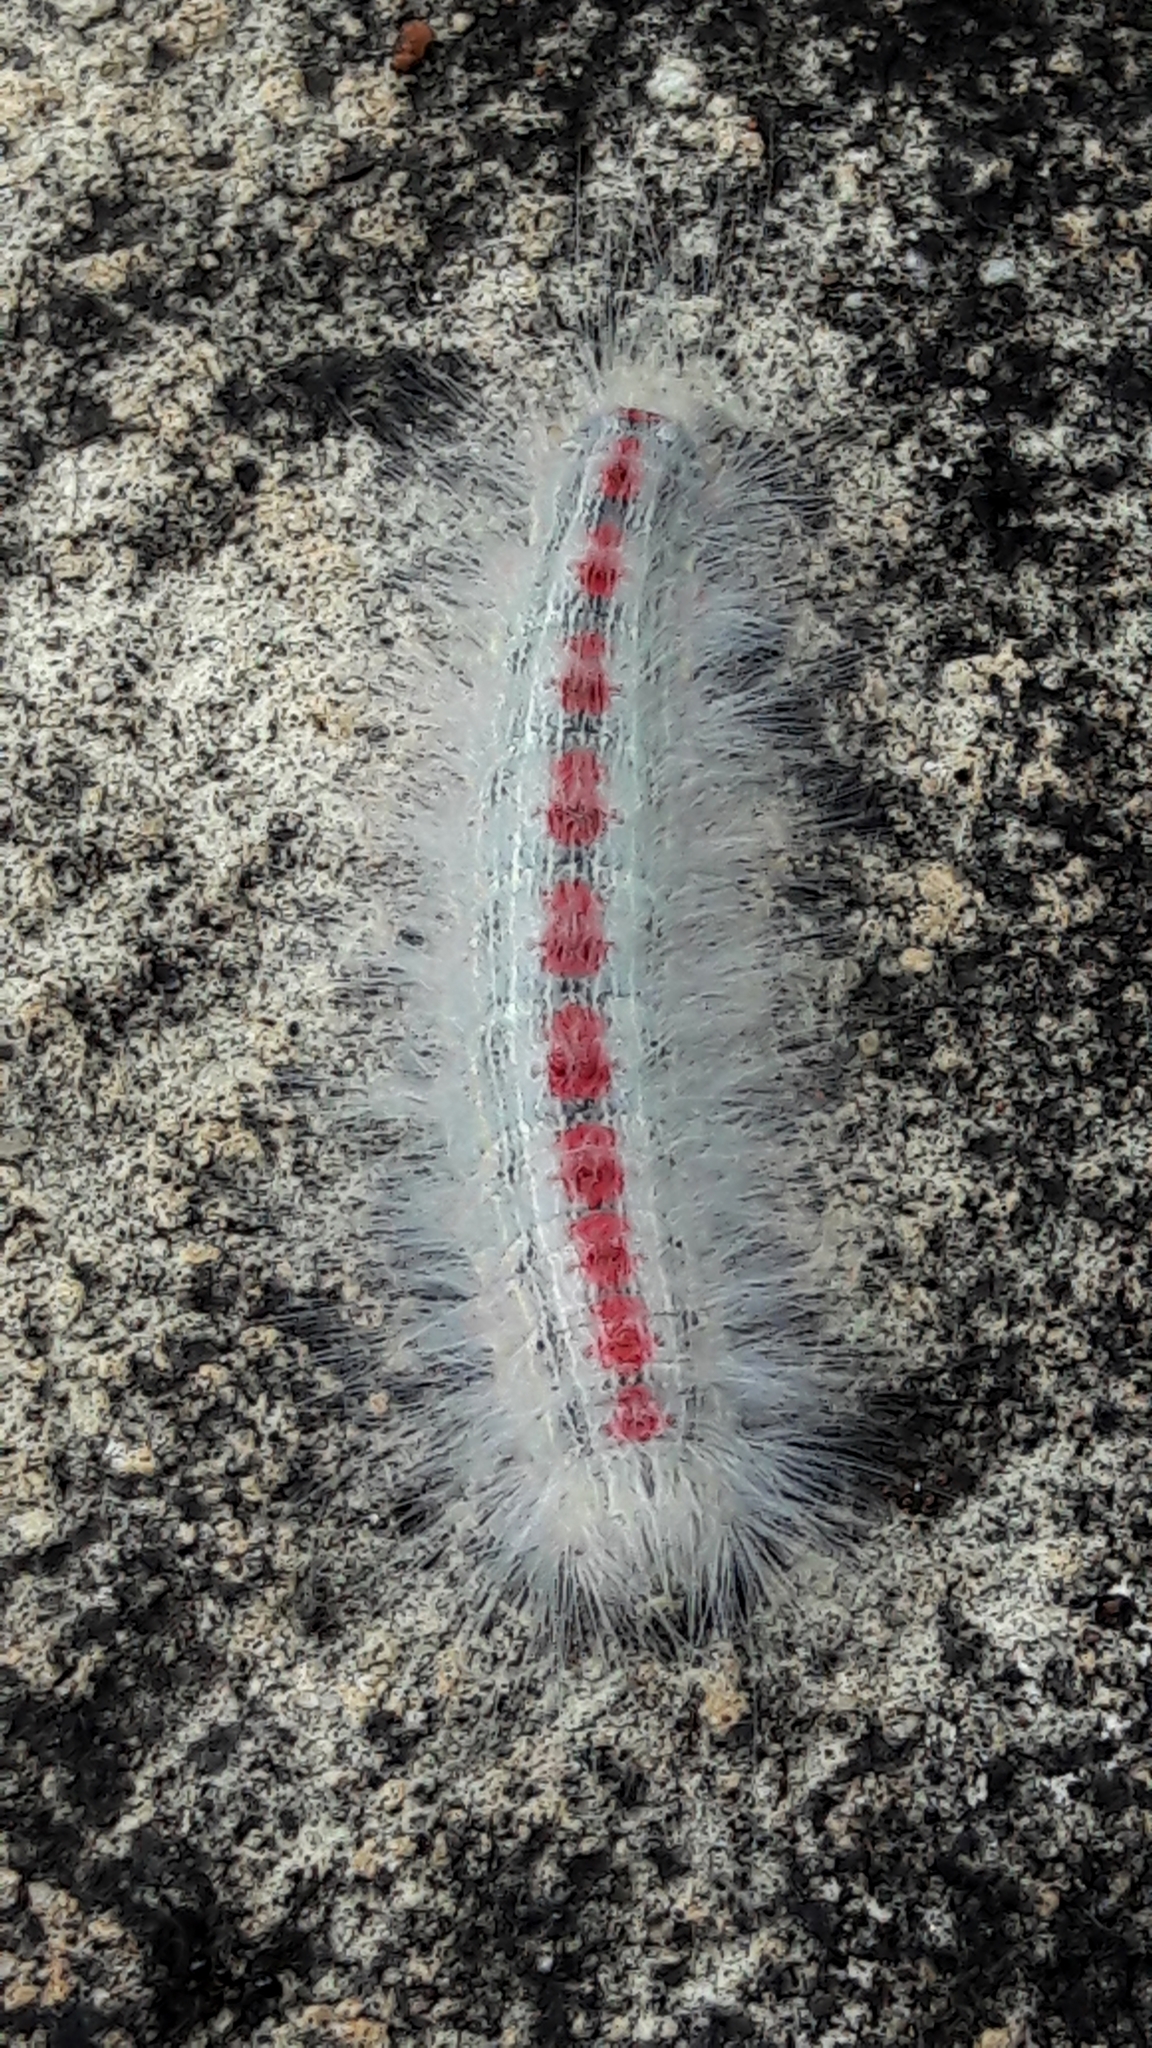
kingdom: Animalia
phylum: Arthropoda
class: Insecta
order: Lepidoptera
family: Lasiocampidae
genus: Euglyphis
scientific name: Euglyphis aenegia
